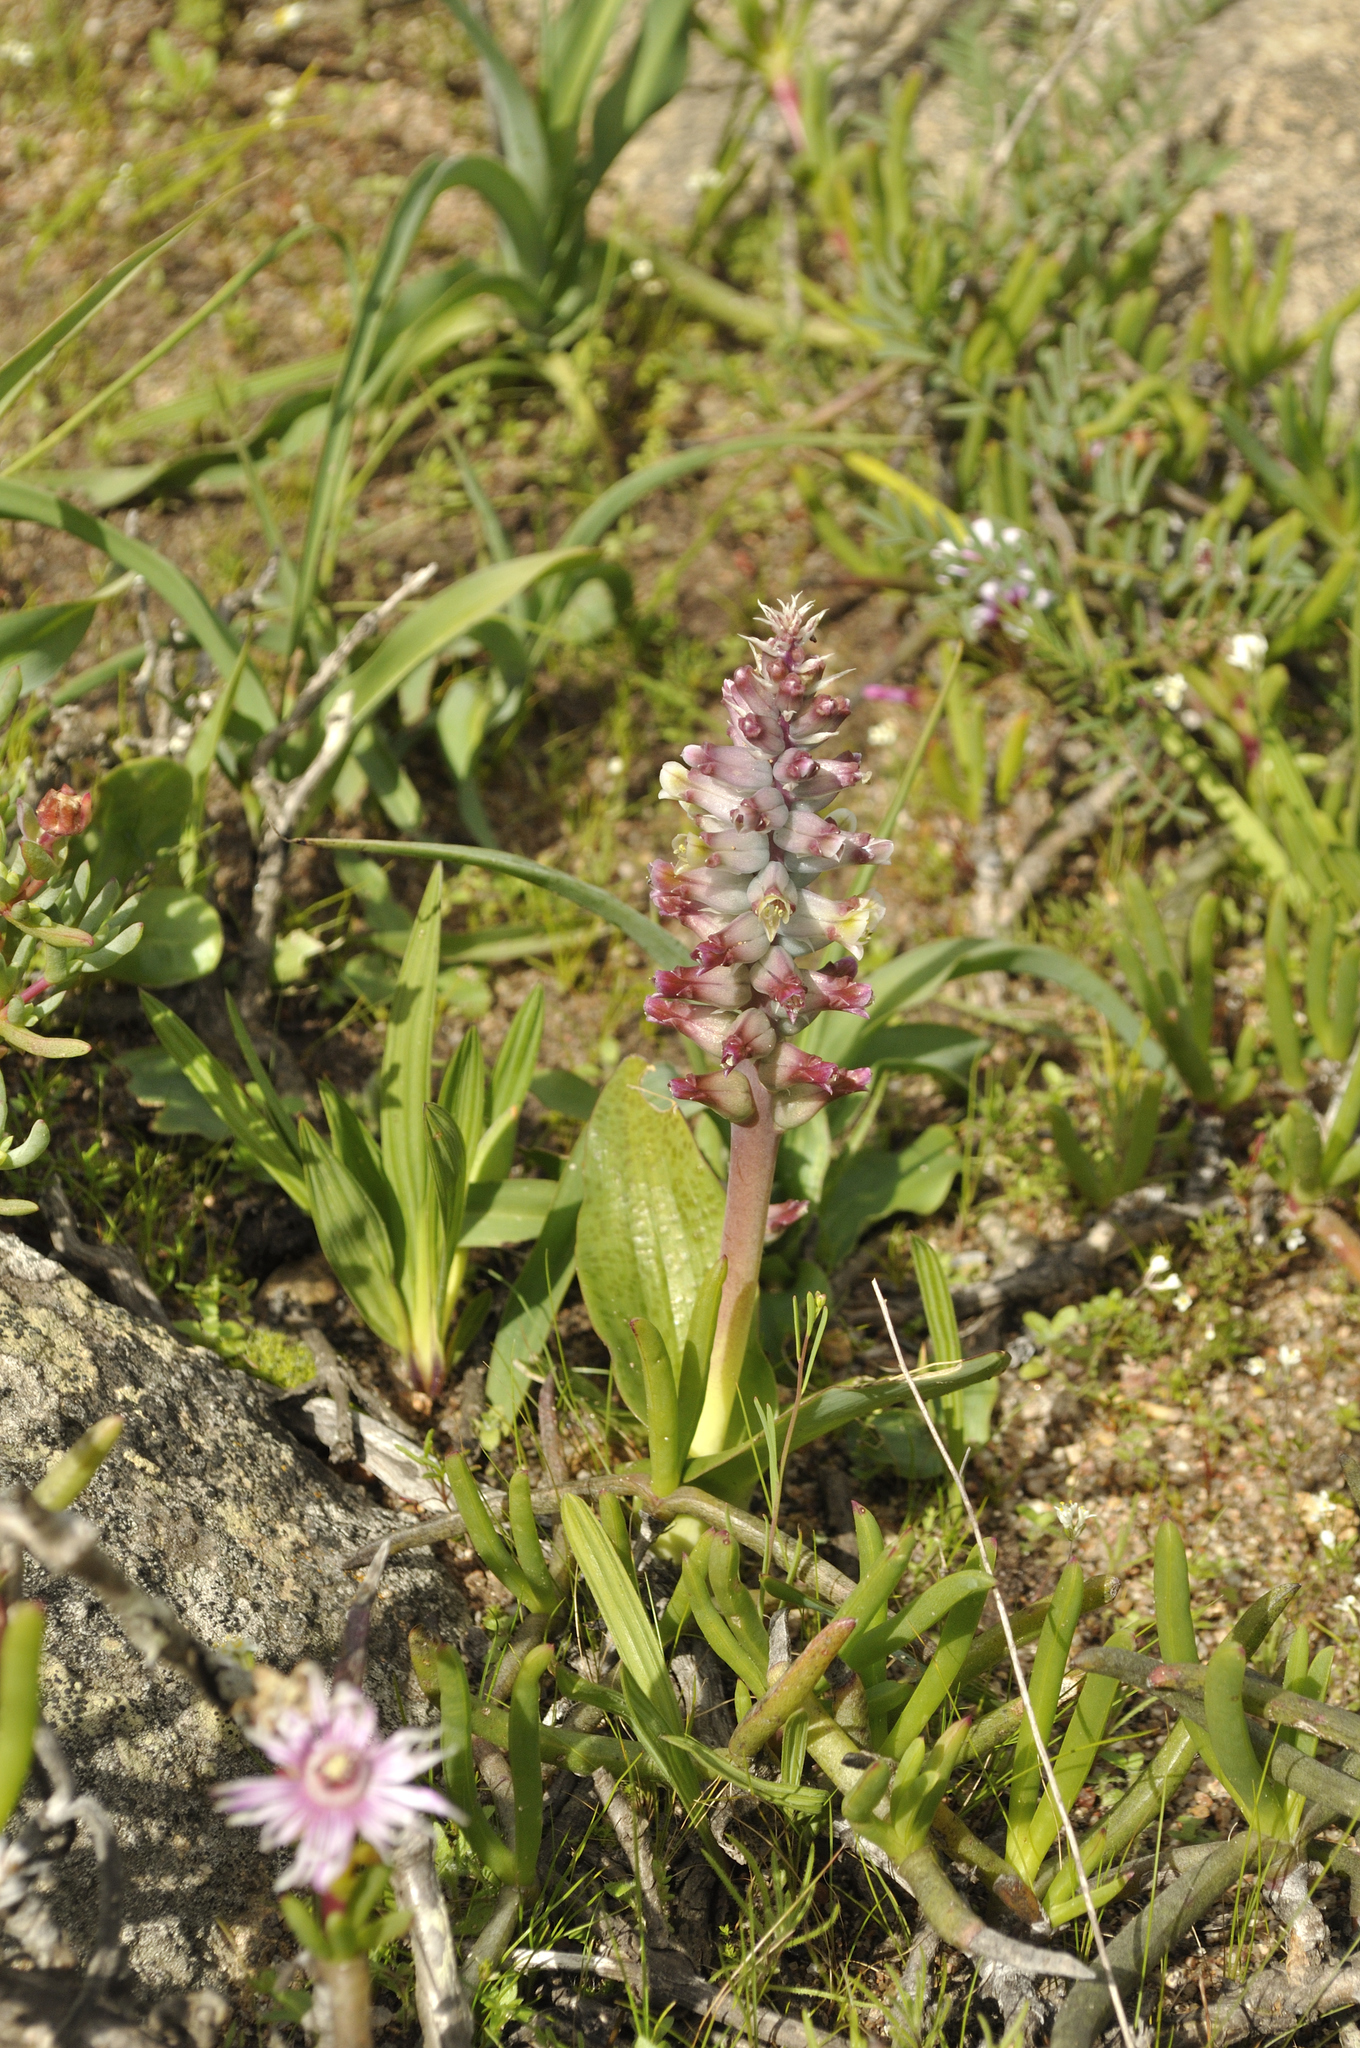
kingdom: Plantae
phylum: Tracheophyta
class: Liliopsida
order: Asparagales
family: Asparagaceae
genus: Lachenalia
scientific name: Lachenalia pallida
